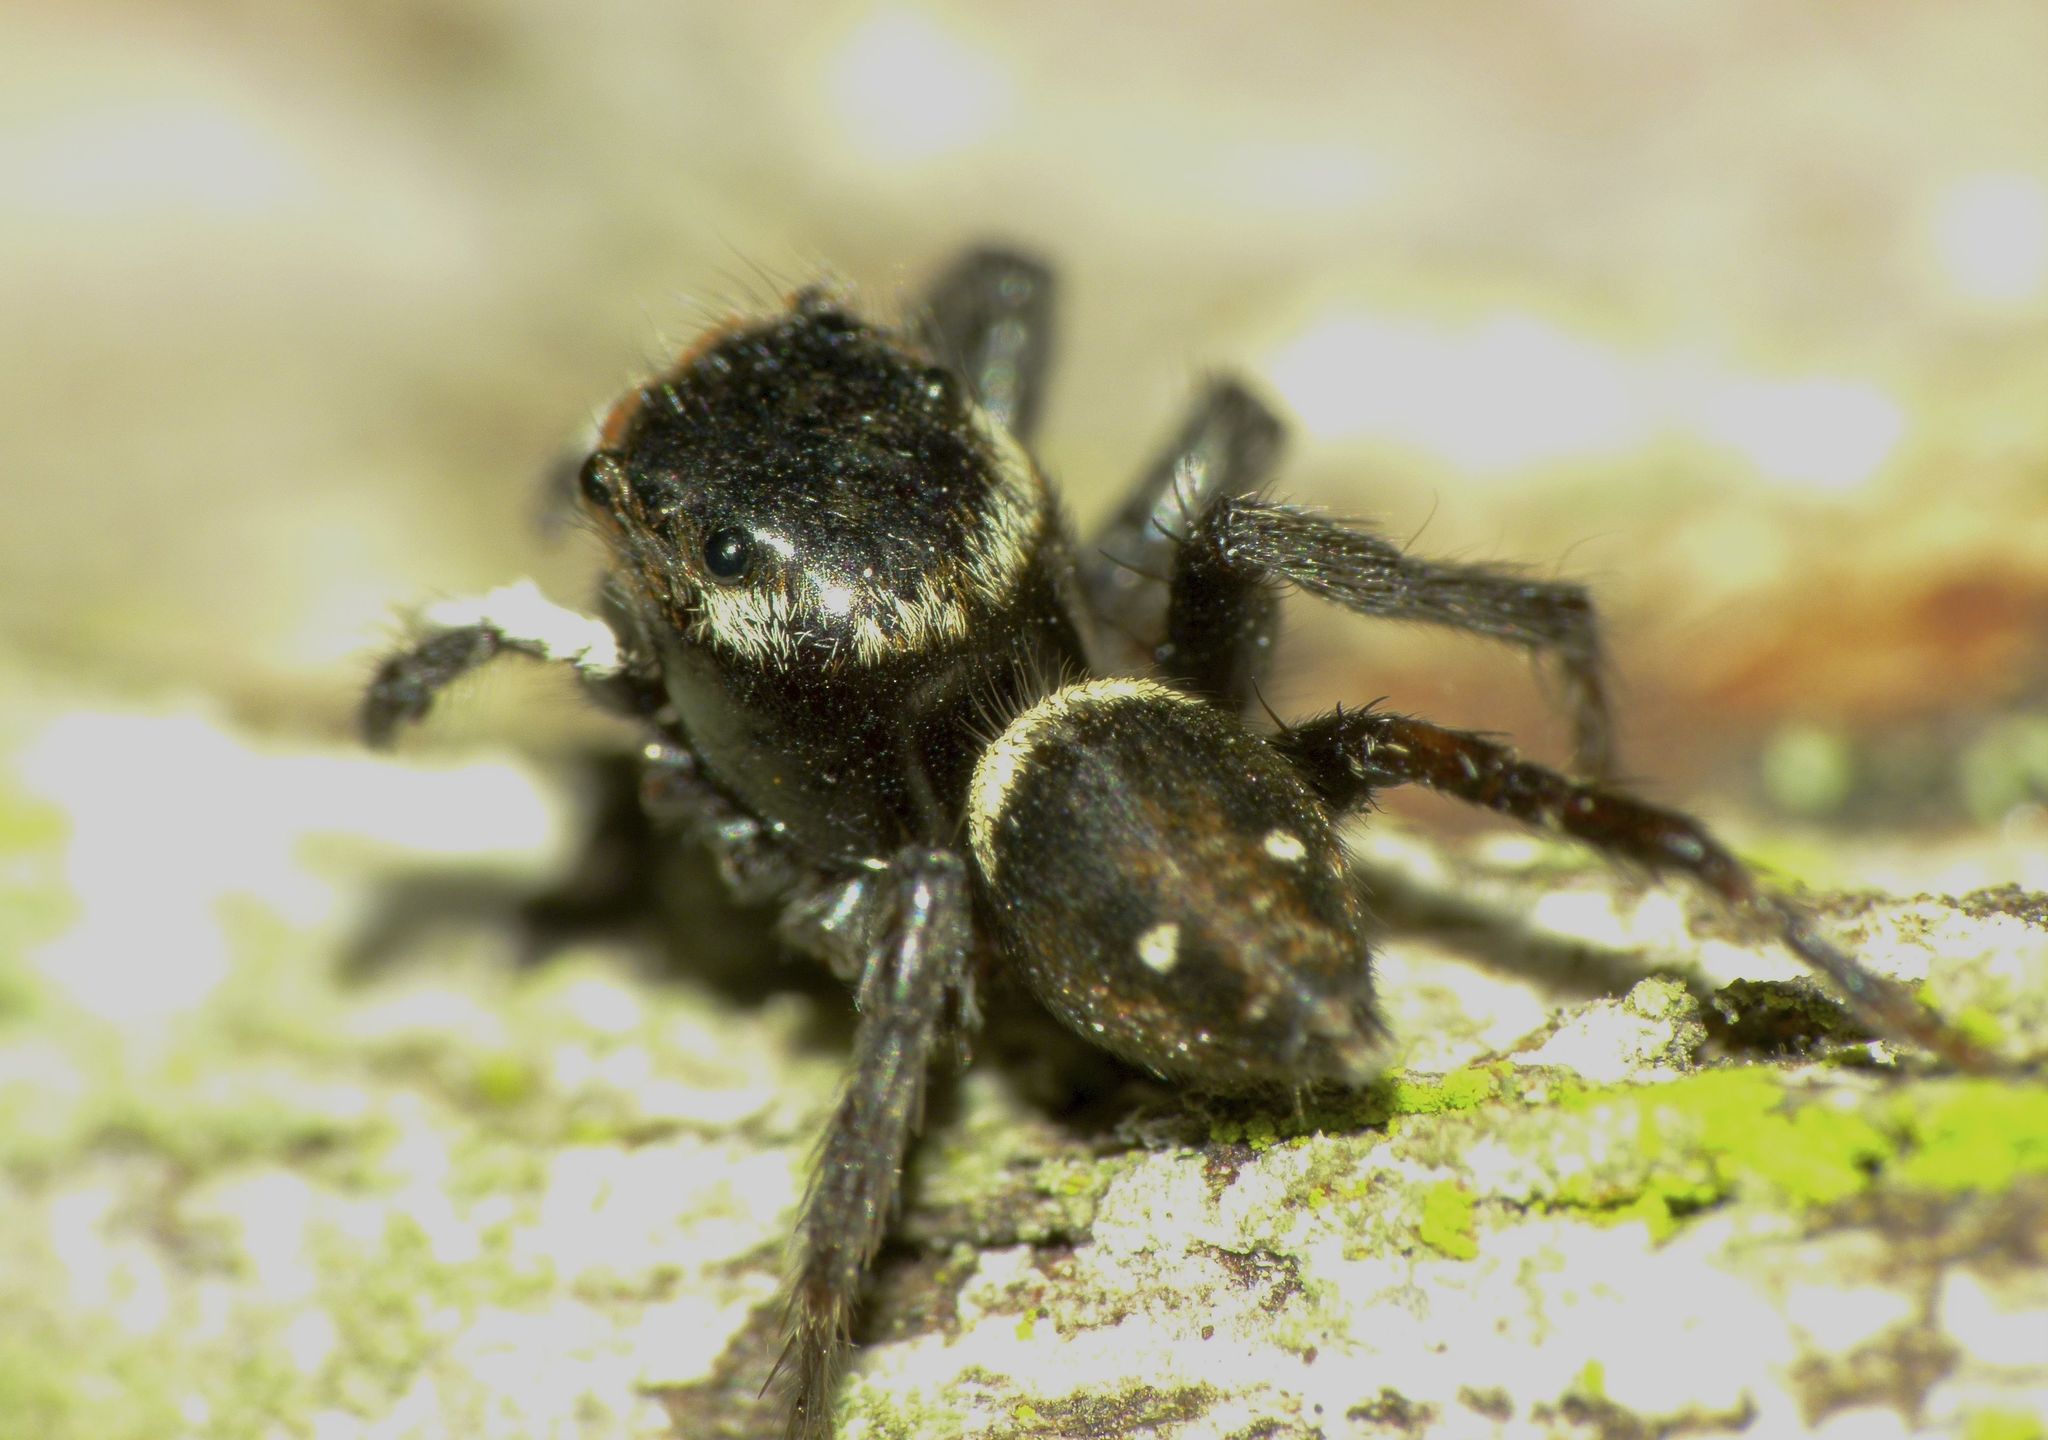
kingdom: Animalia
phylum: Arthropoda
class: Arachnida
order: Araneae
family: Salticidae
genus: Hasarius
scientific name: Hasarius adansoni
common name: Jumping spider
